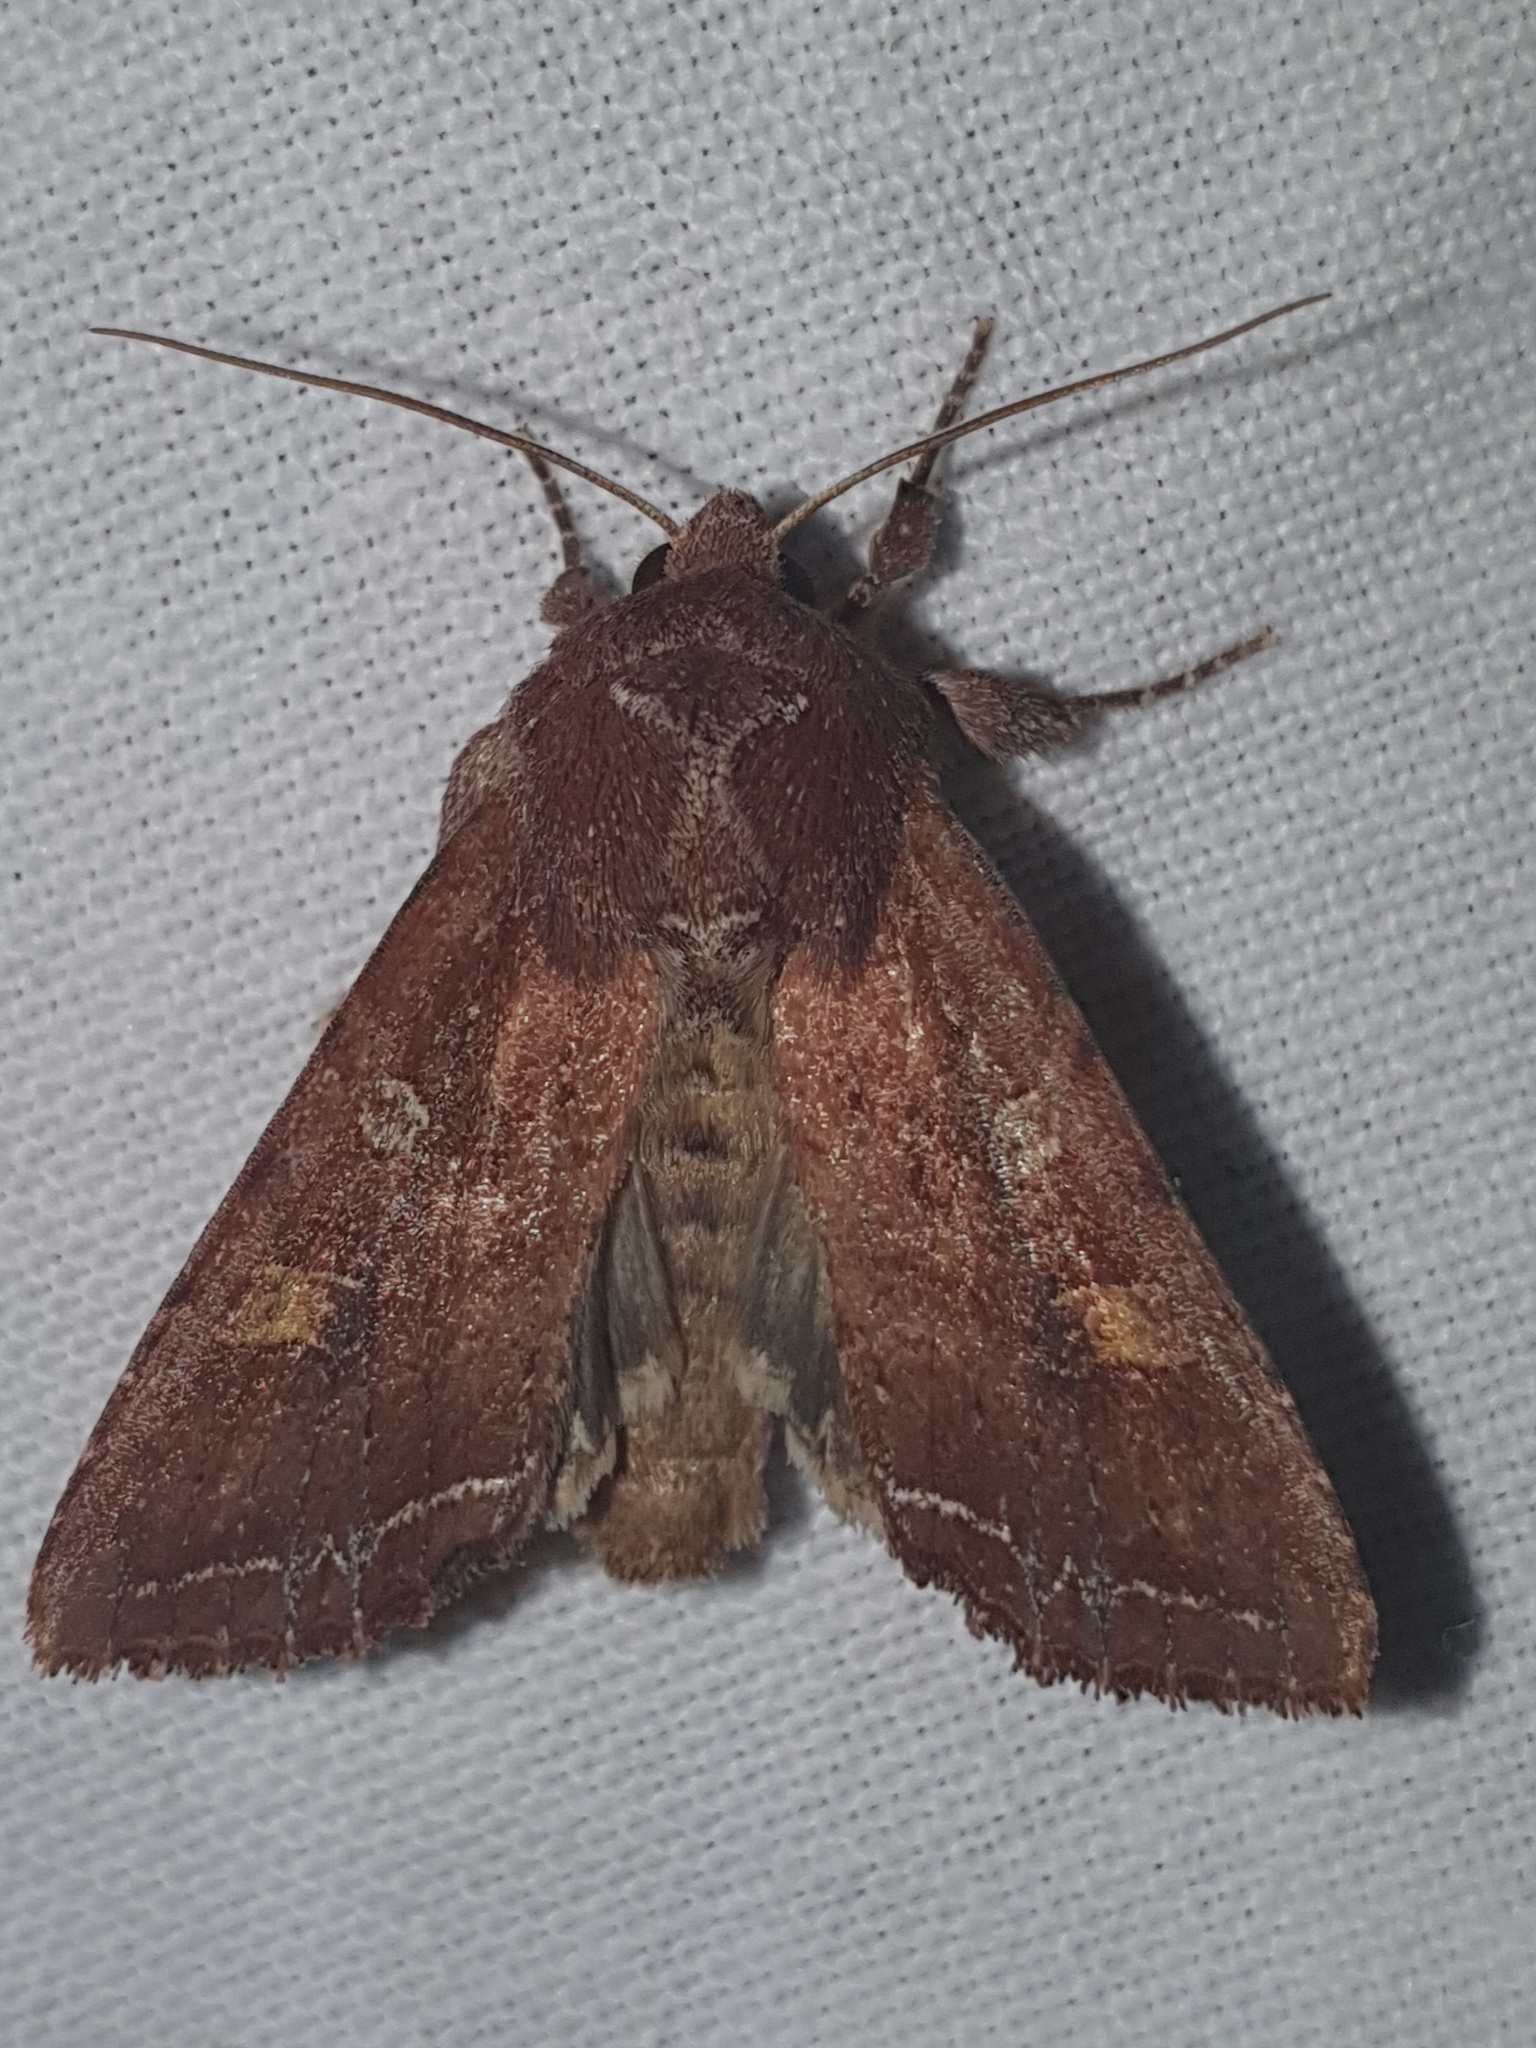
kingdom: Animalia
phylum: Arthropoda
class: Insecta
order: Lepidoptera
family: Noctuidae
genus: Lacanobia
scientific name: Lacanobia oleracea
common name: Bright-line brown-eye
